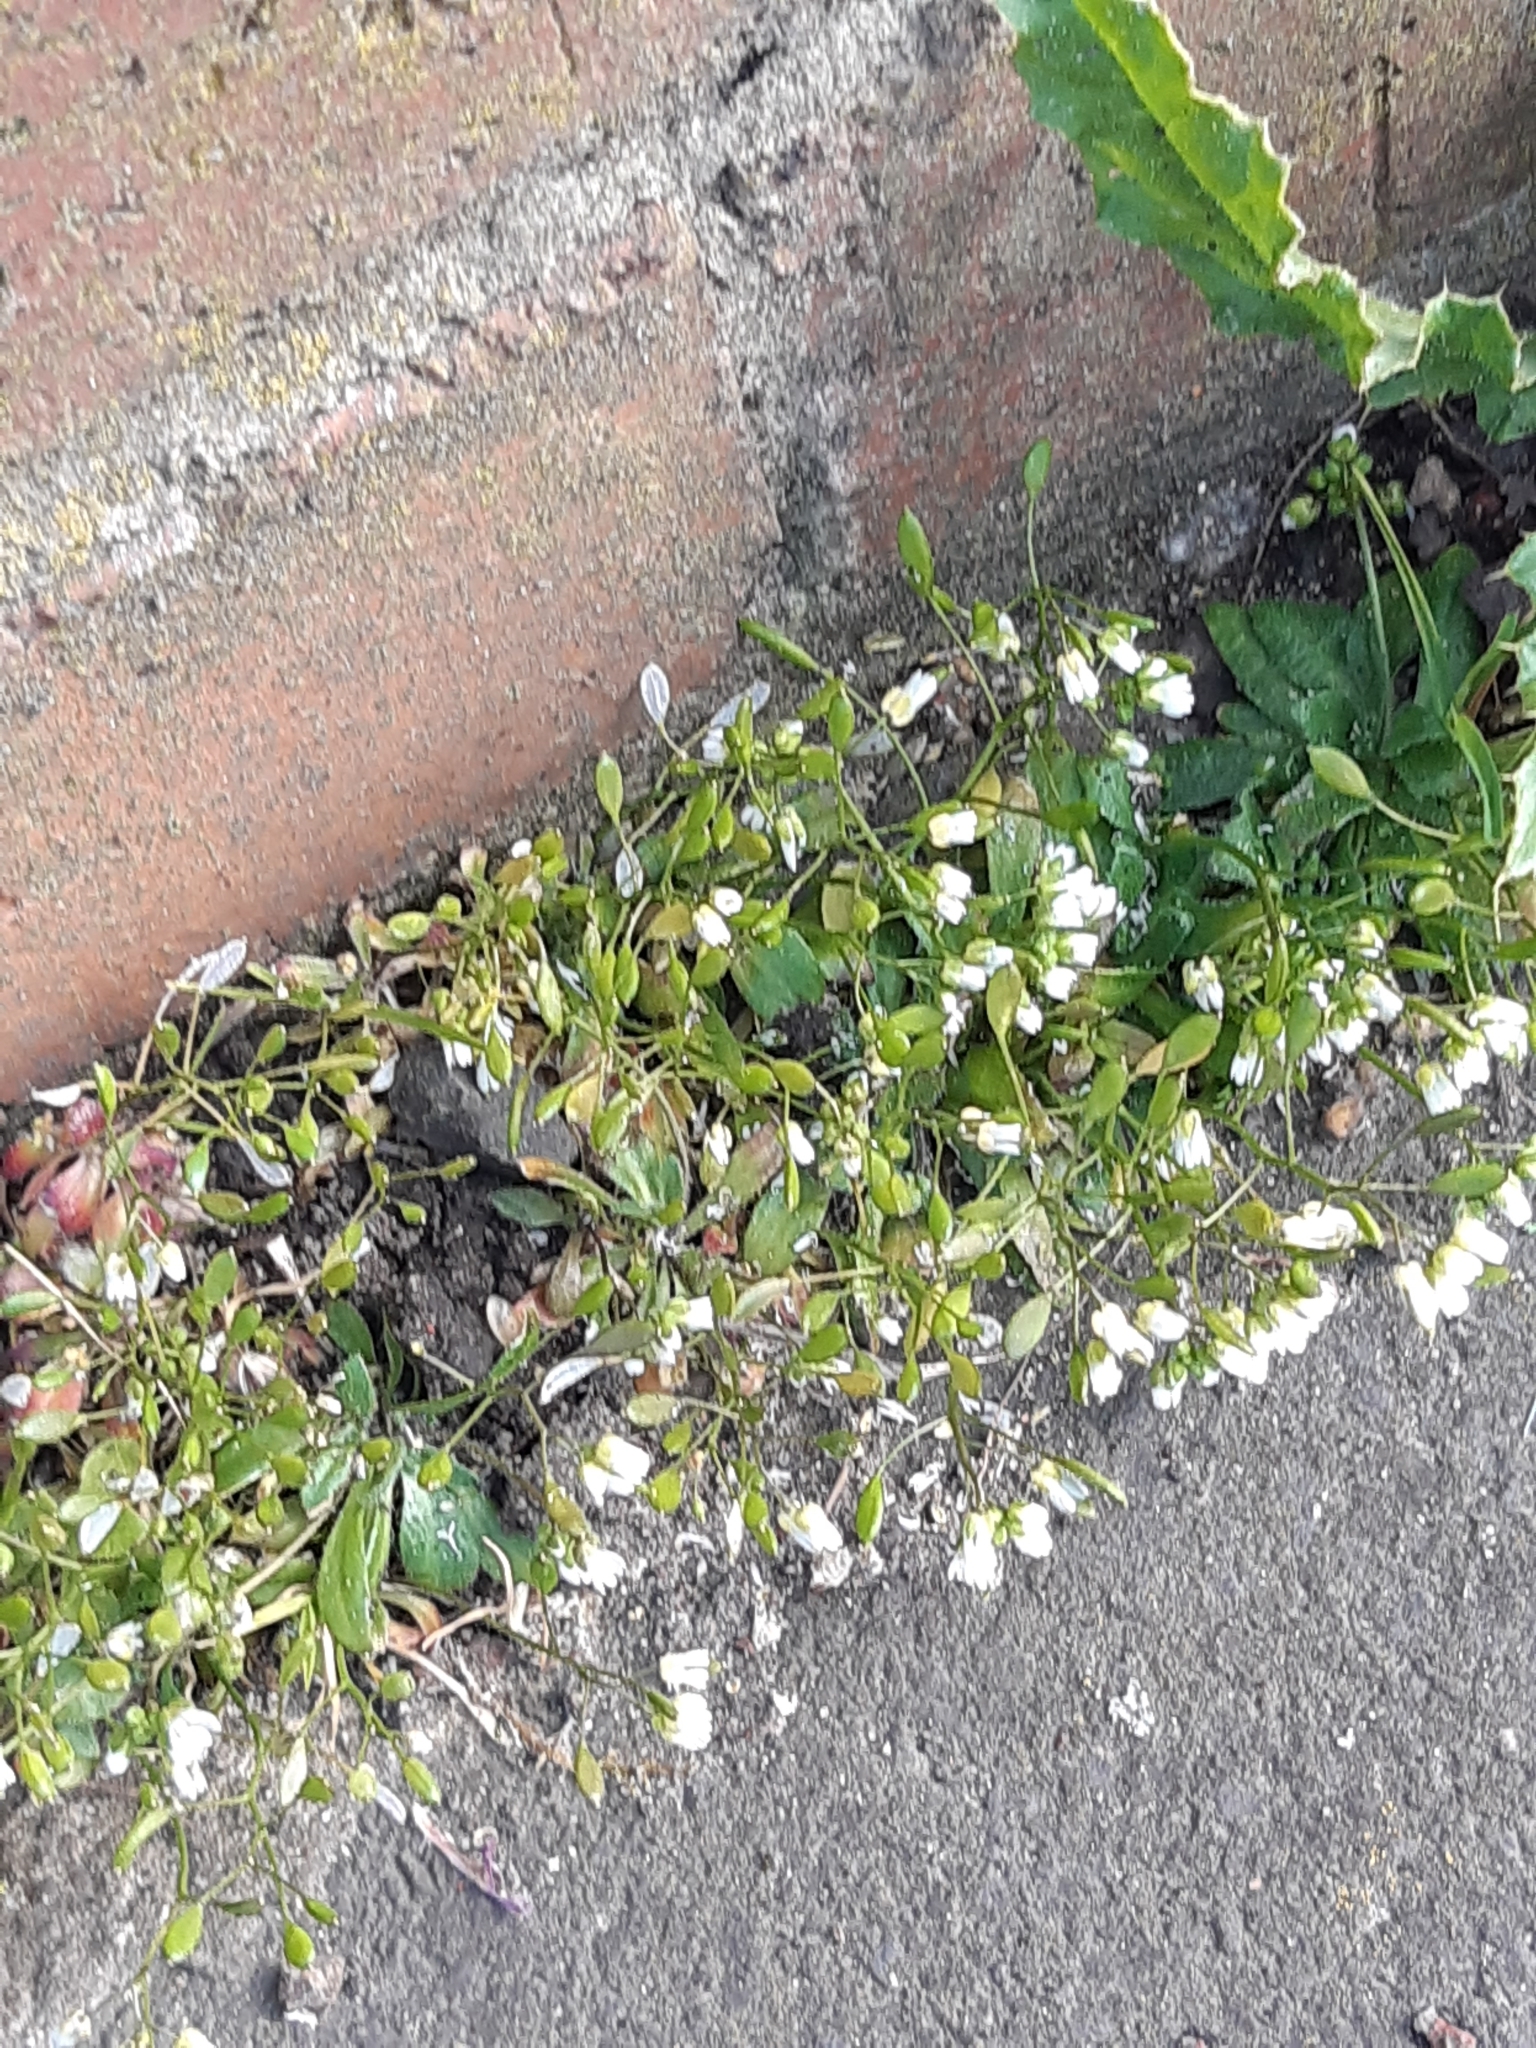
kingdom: Plantae
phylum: Tracheophyta
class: Magnoliopsida
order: Brassicales
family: Brassicaceae
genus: Draba
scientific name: Draba verna
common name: Spring draba
